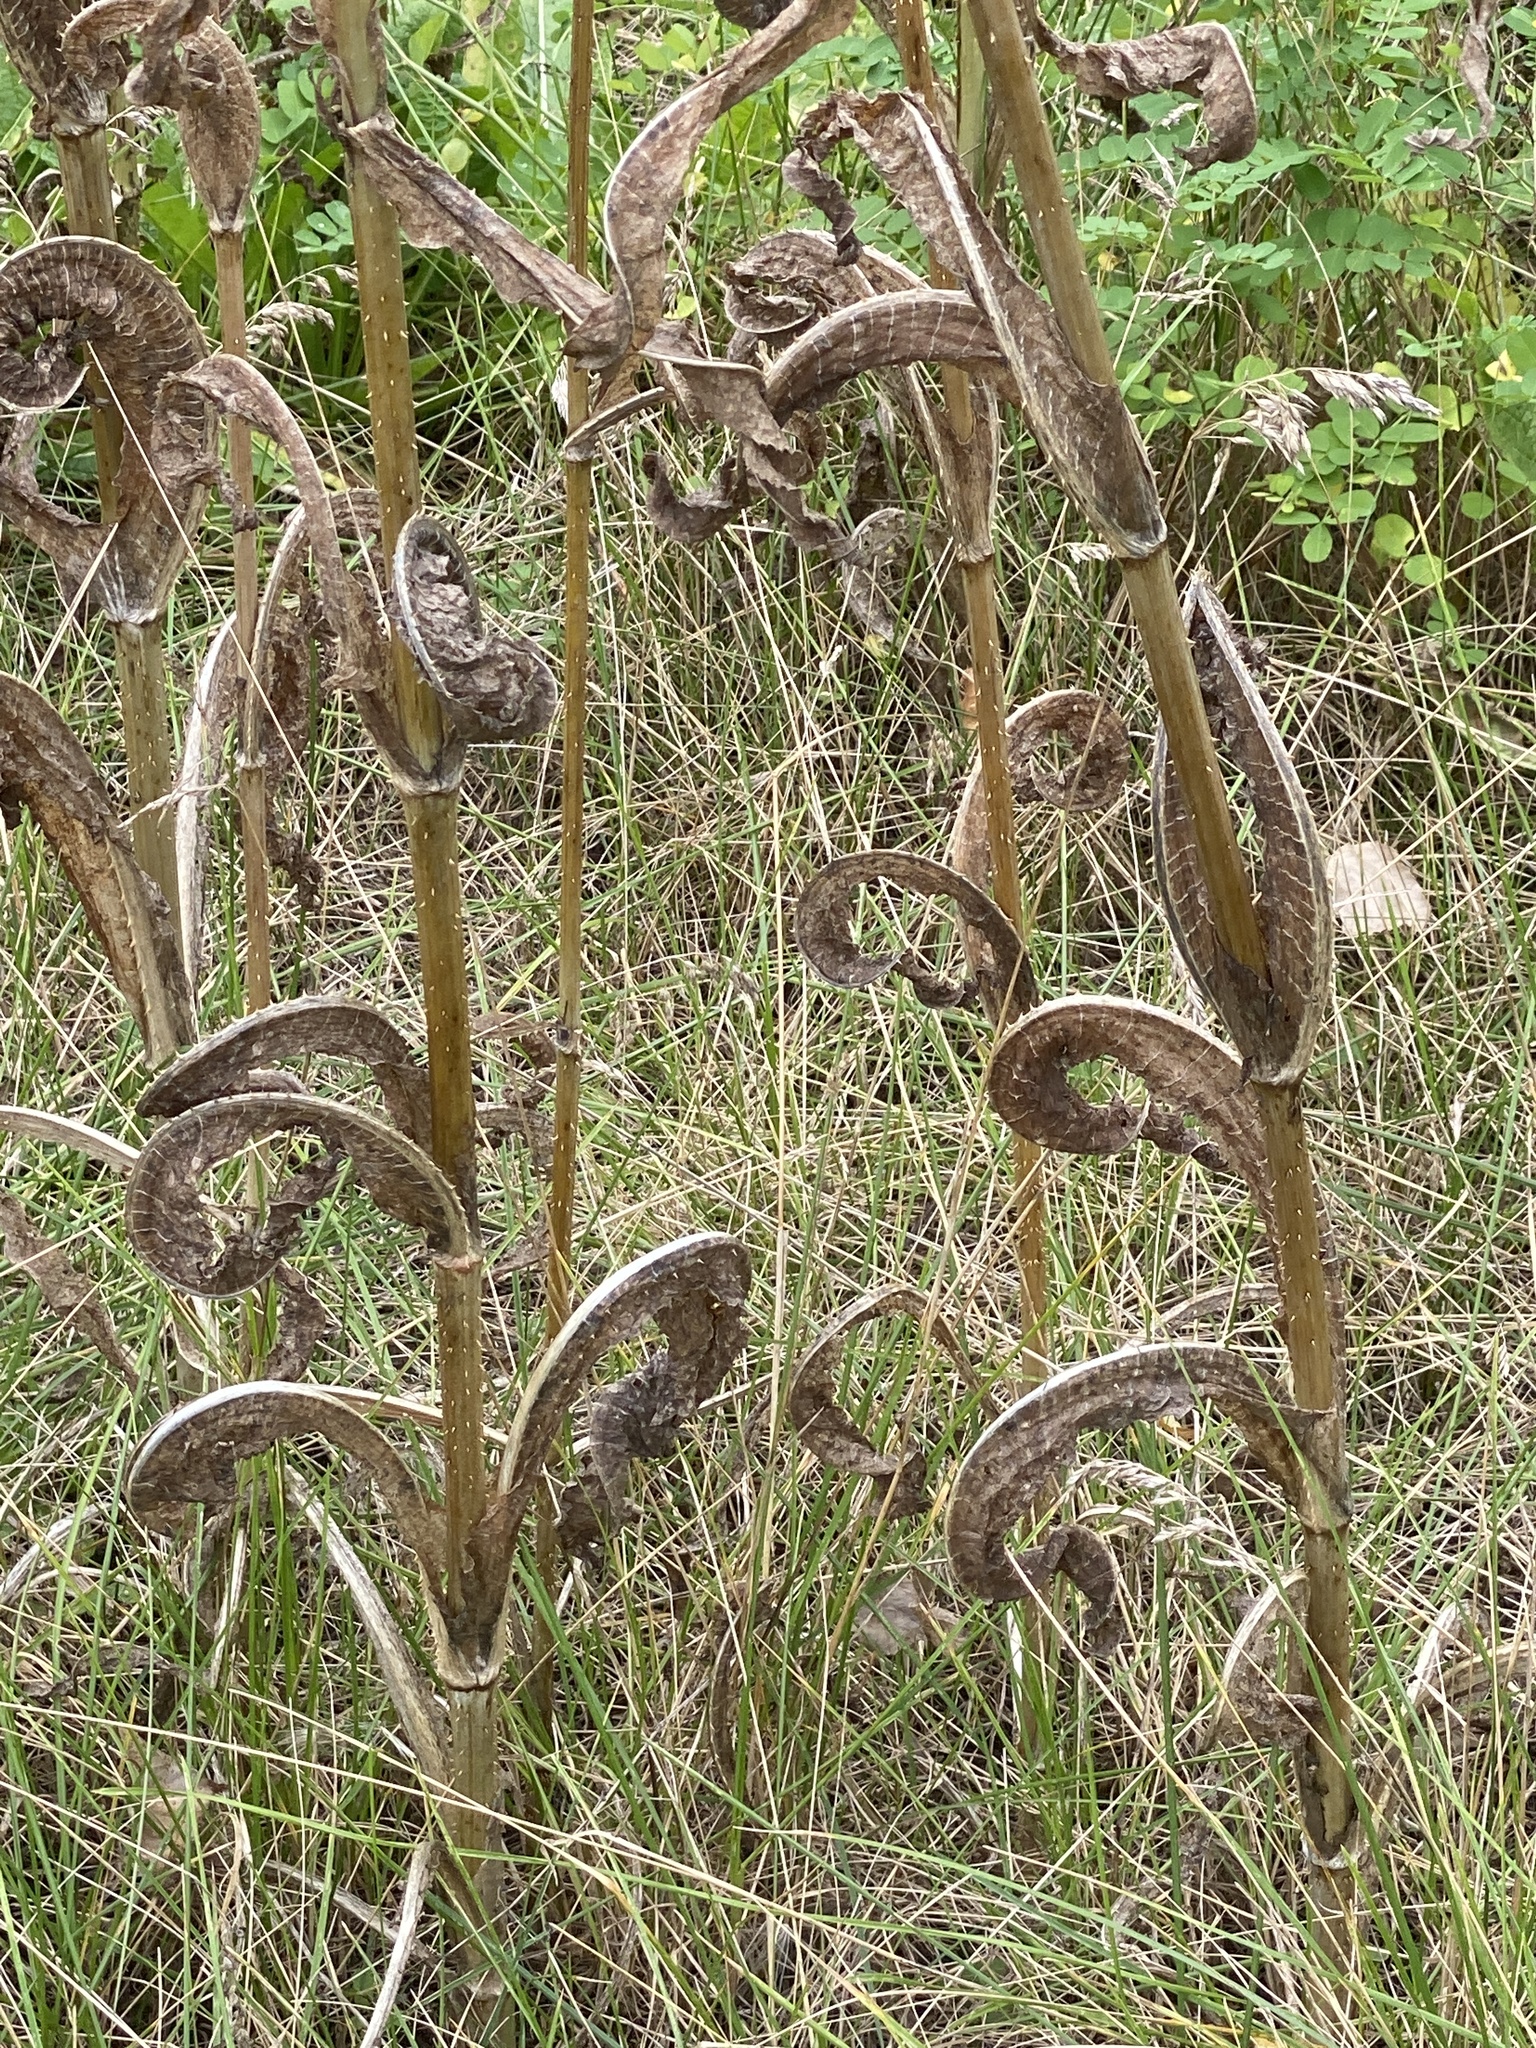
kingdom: Plantae
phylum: Tracheophyta
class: Magnoliopsida
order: Dipsacales
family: Caprifoliaceae
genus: Dipsacus
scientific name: Dipsacus fullonum
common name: Teasel
